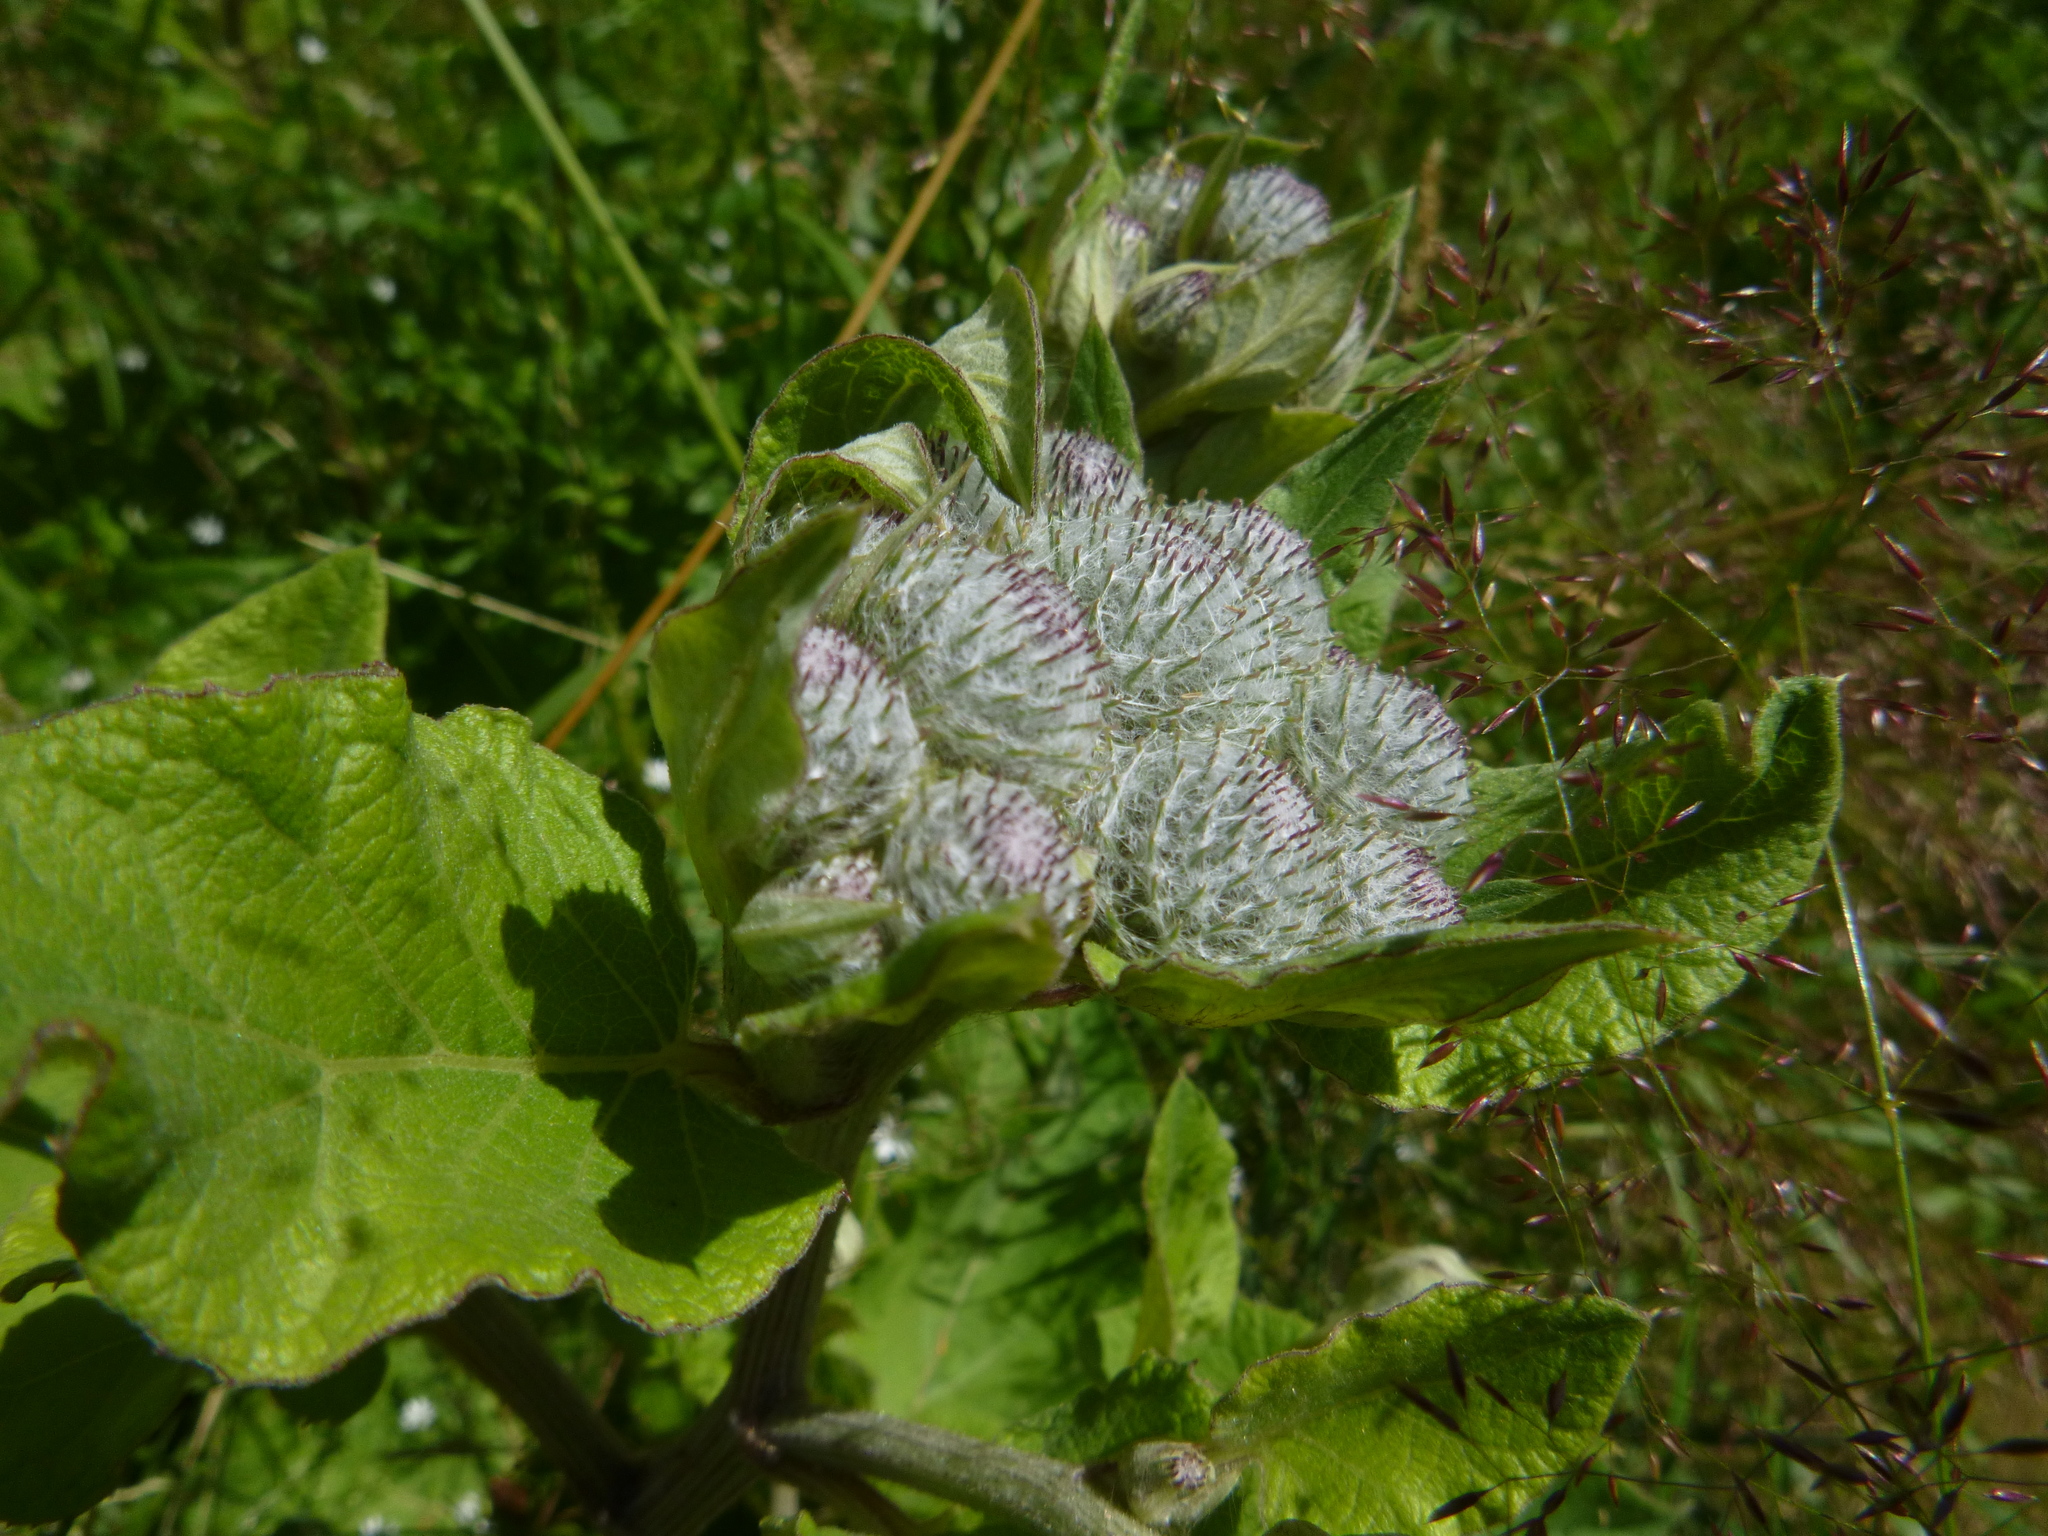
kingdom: Plantae
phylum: Tracheophyta
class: Magnoliopsida
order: Asterales
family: Asteraceae
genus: Arctium
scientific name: Arctium tomentosum
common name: Woolly burdock
